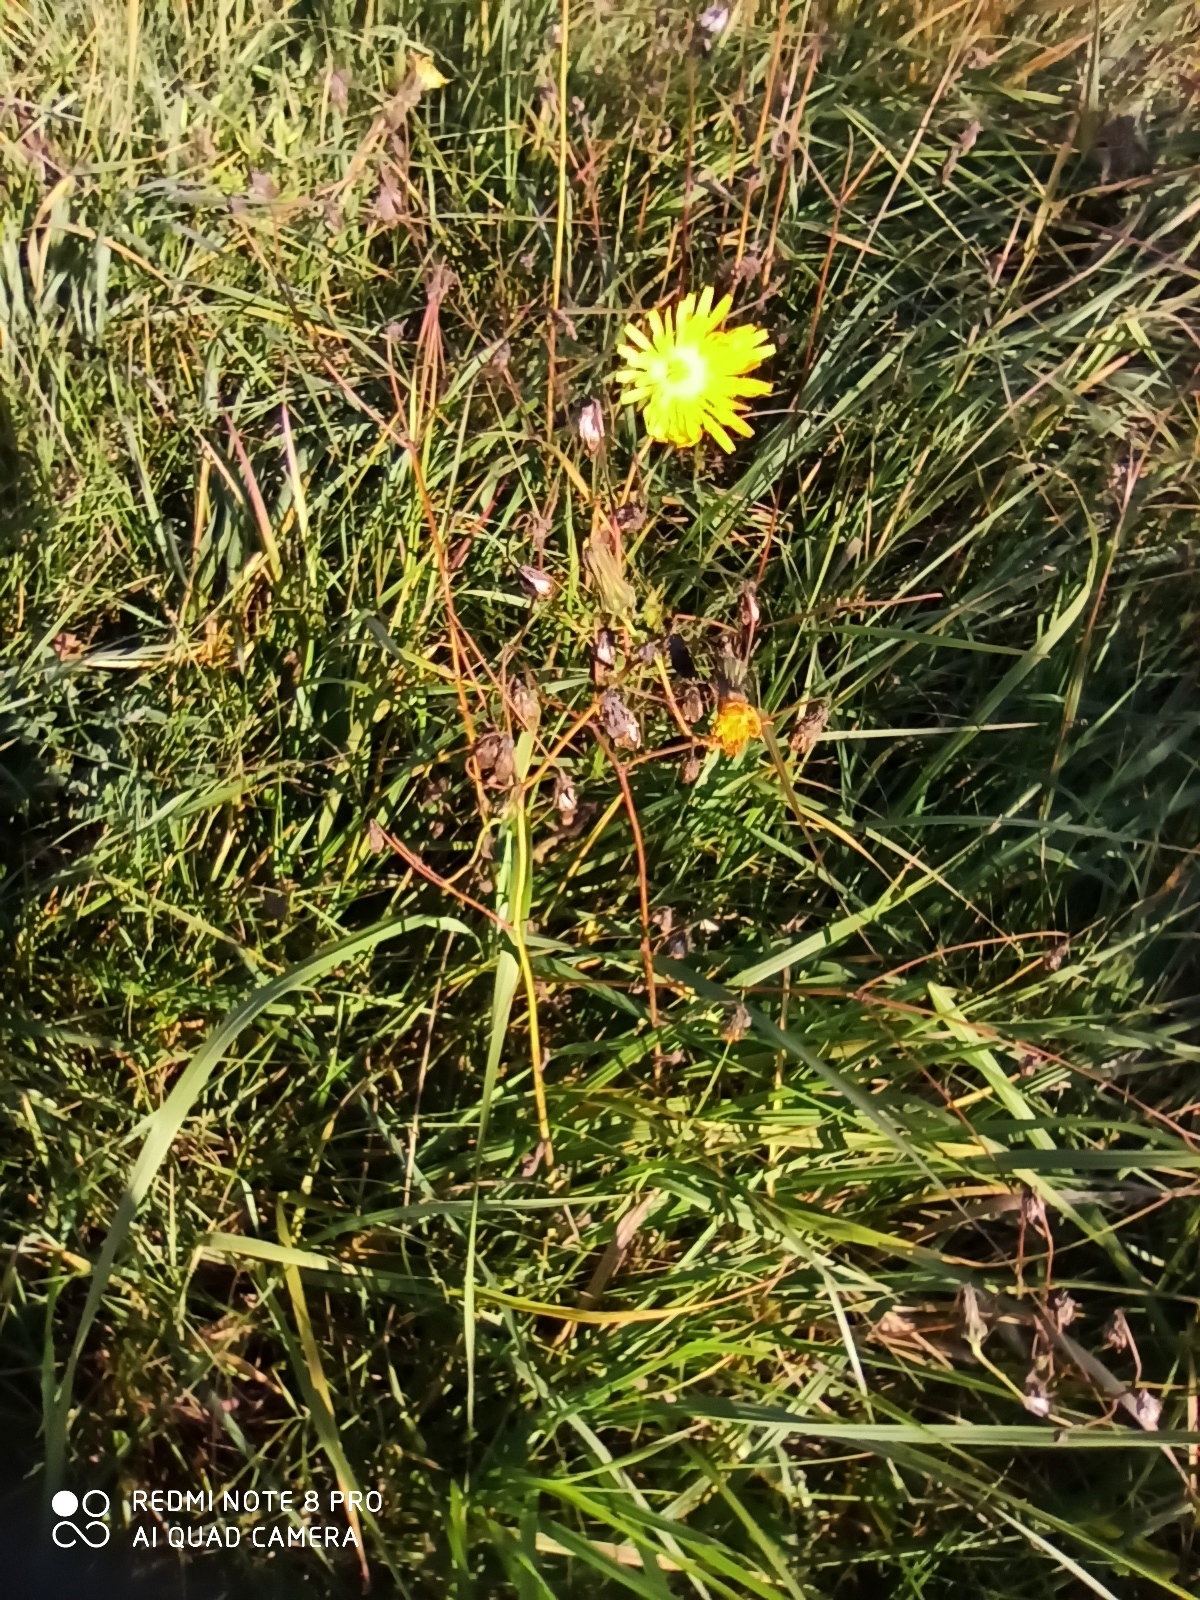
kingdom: Plantae
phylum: Tracheophyta
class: Magnoliopsida
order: Asterales
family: Asteraceae
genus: Sonchus
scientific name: Sonchus arvensis
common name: Perennial sow-thistle
